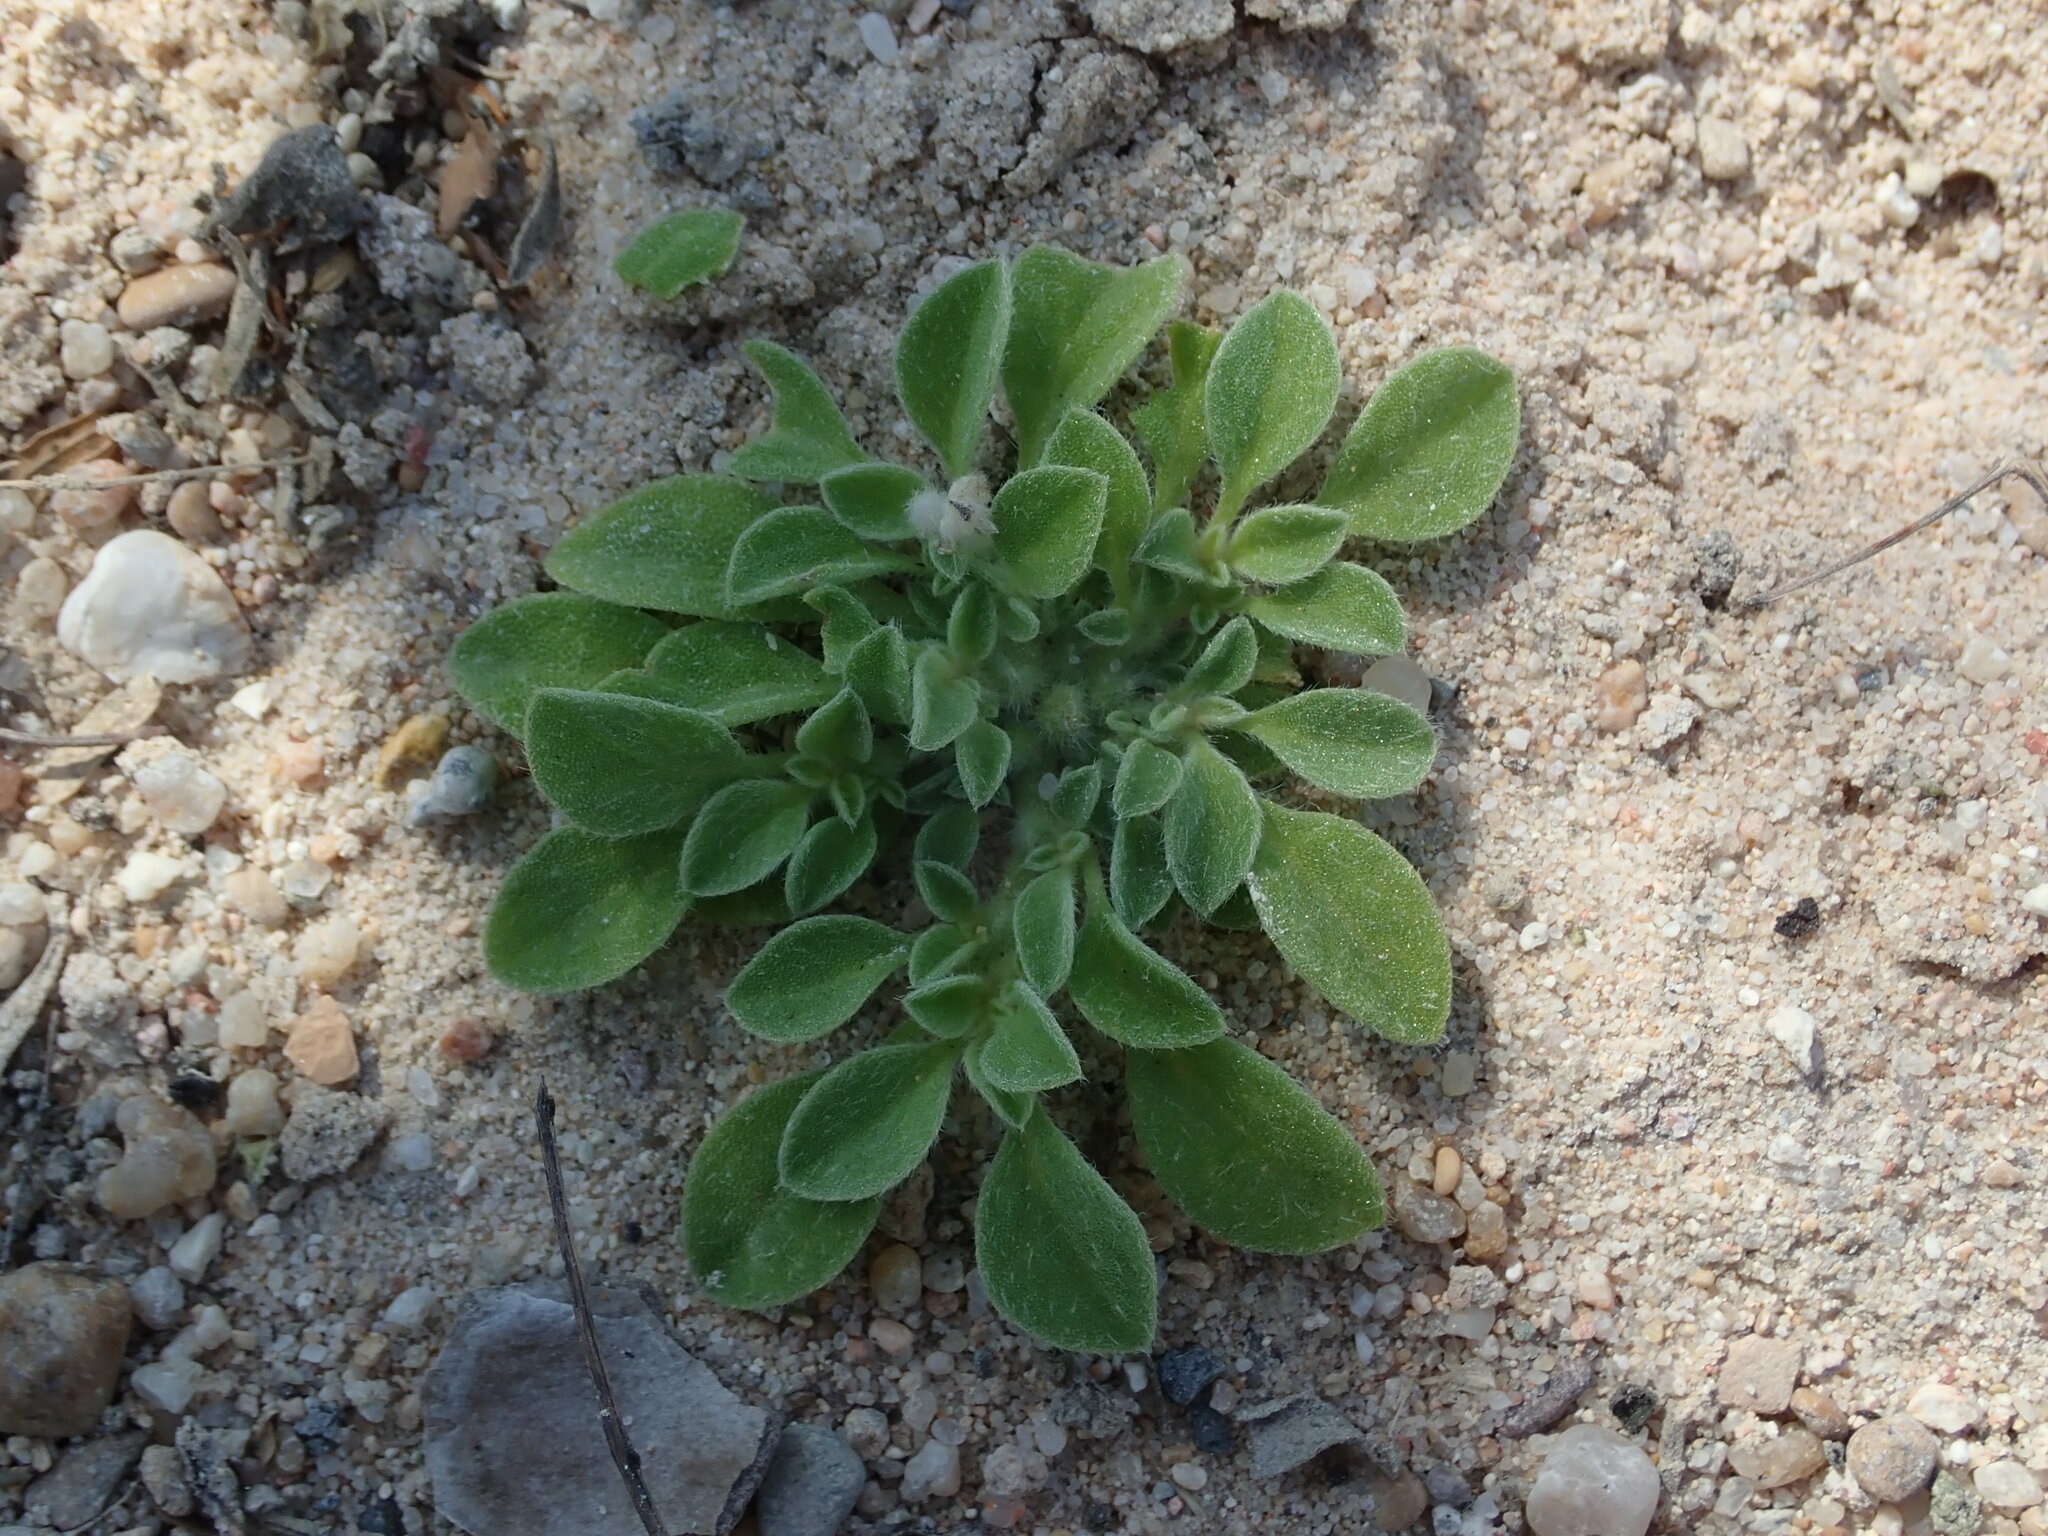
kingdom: Plantae
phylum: Tracheophyta
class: Magnoliopsida
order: Caryophyllales
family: Aizoaceae
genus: Aizoon
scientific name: Aizoon canariense
